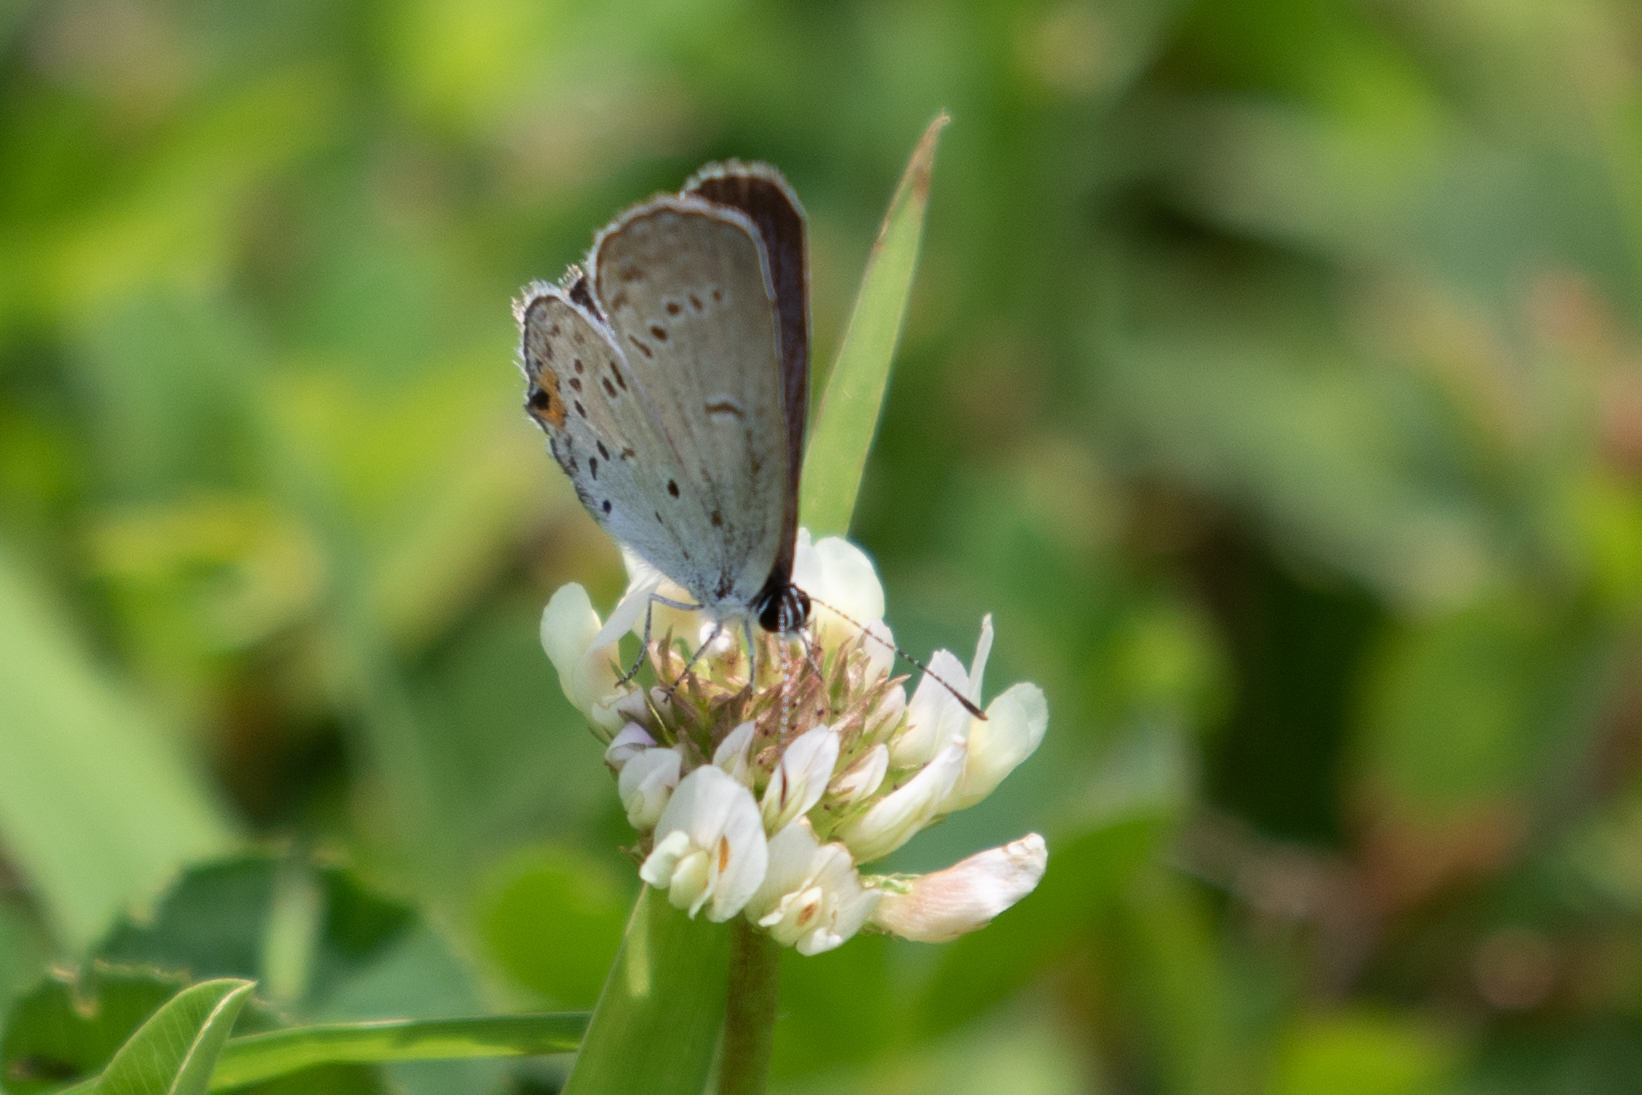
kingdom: Animalia
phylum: Arthropoda
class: Insecta
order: Lepidoptera
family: Lycaenidae
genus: Elkalyce
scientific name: Elkalyce comyntas
